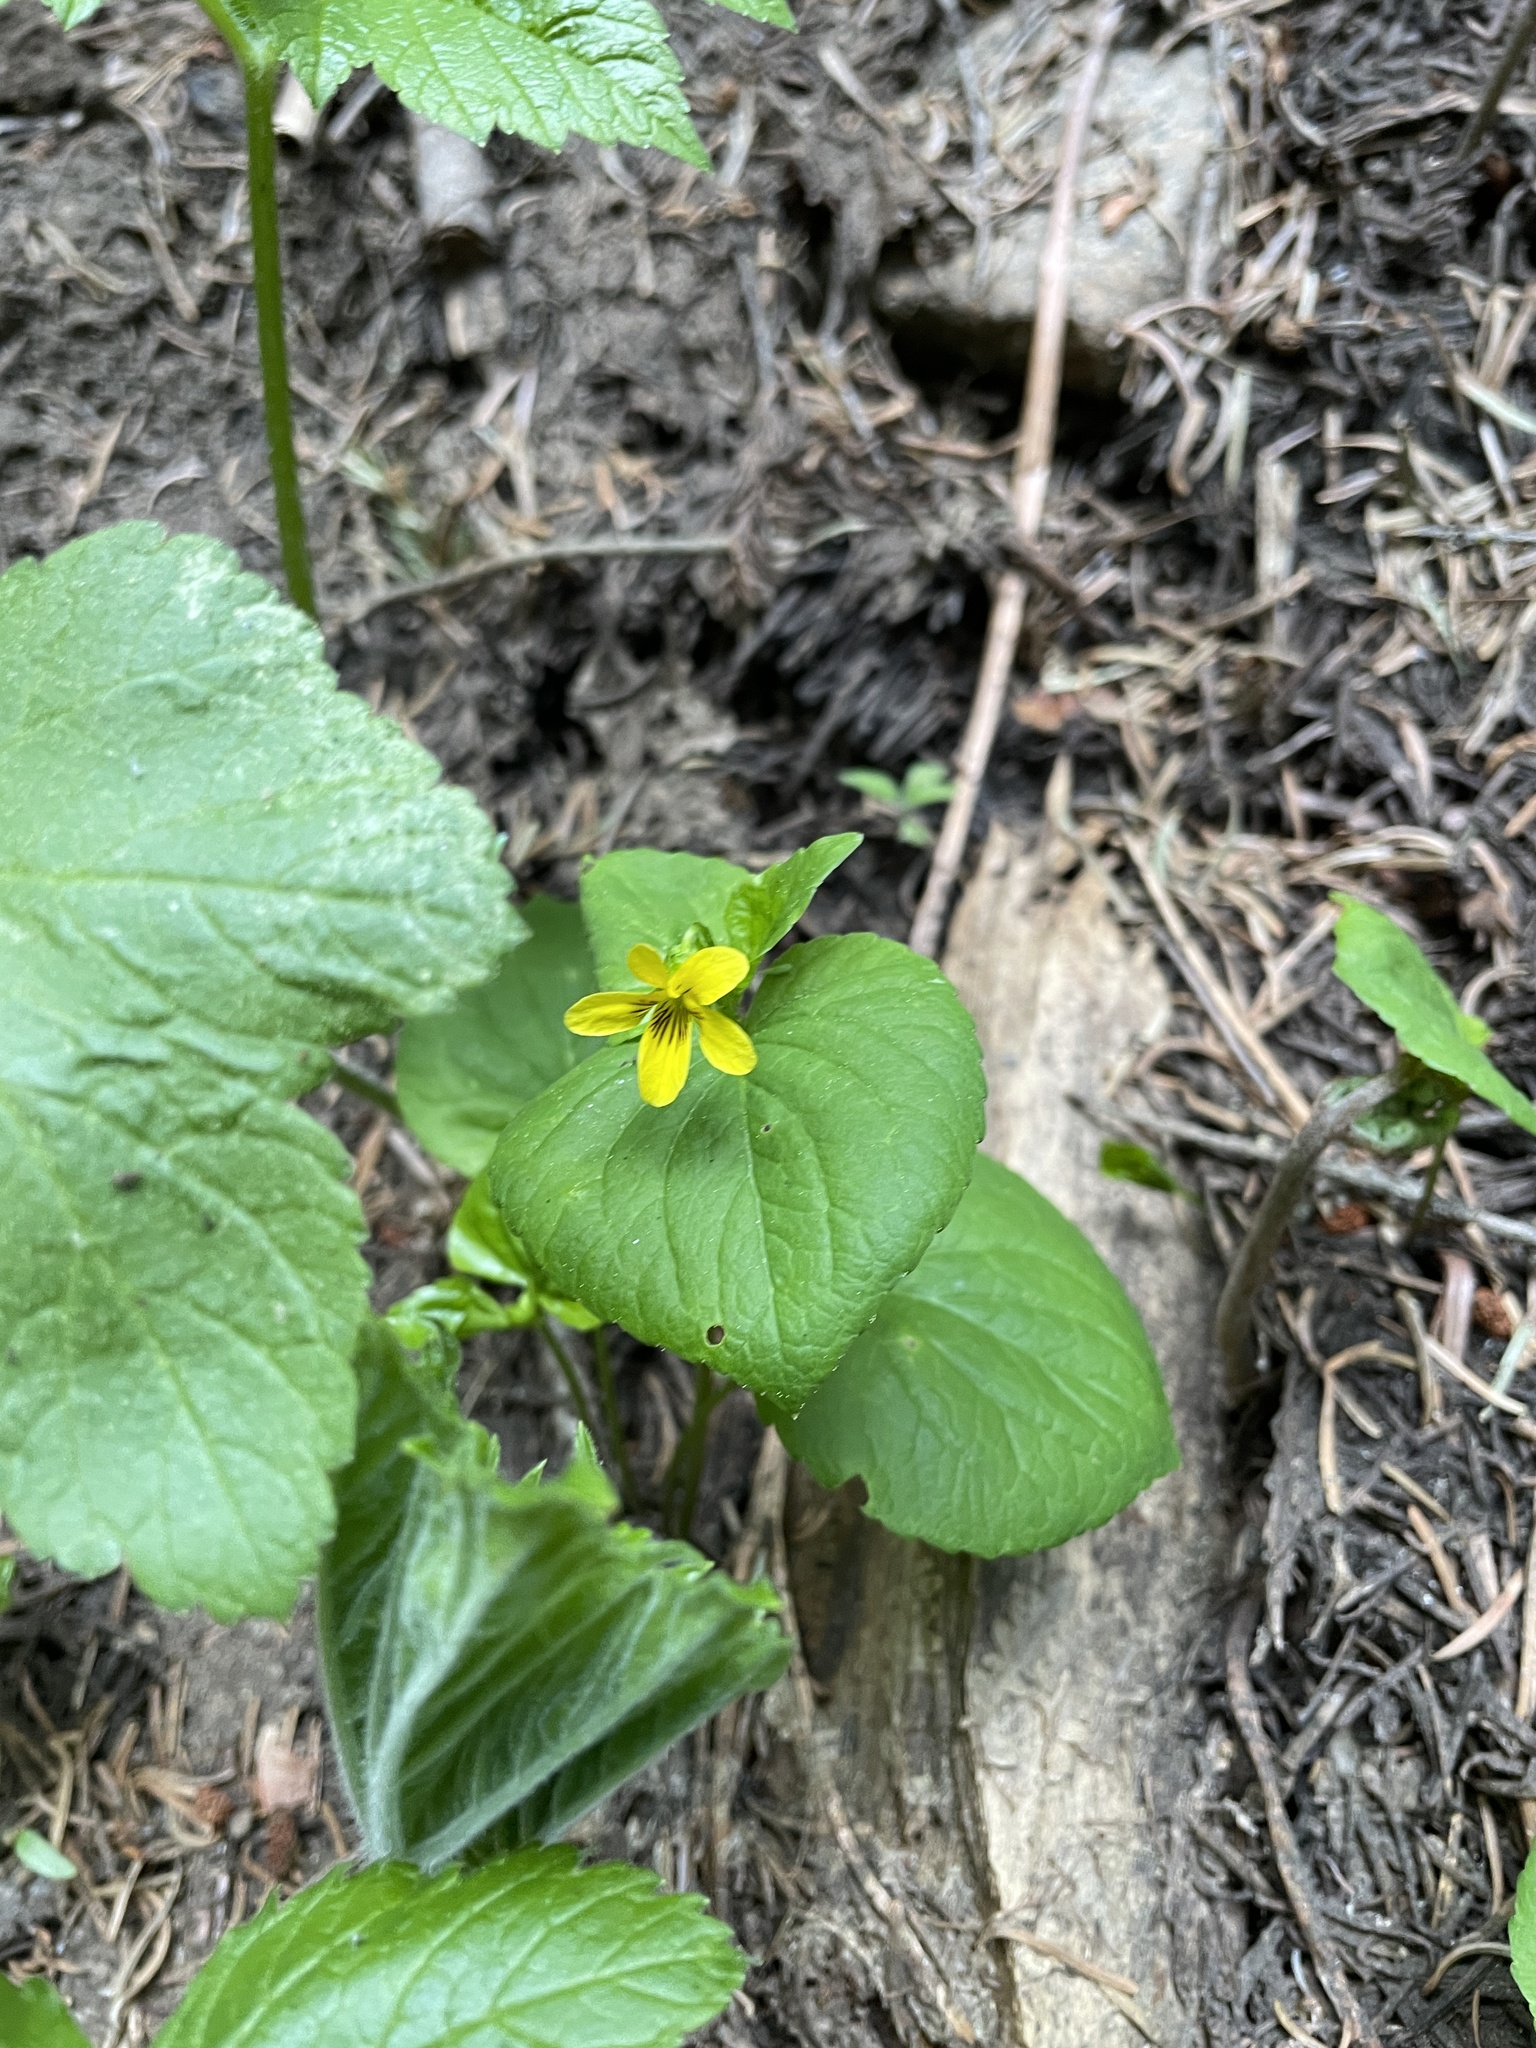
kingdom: Plantae
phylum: Tracheophyta
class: Magnoliopsida
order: Malpighiales
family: Violaceae
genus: Viola
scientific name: Viola glabella
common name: Stream violet
